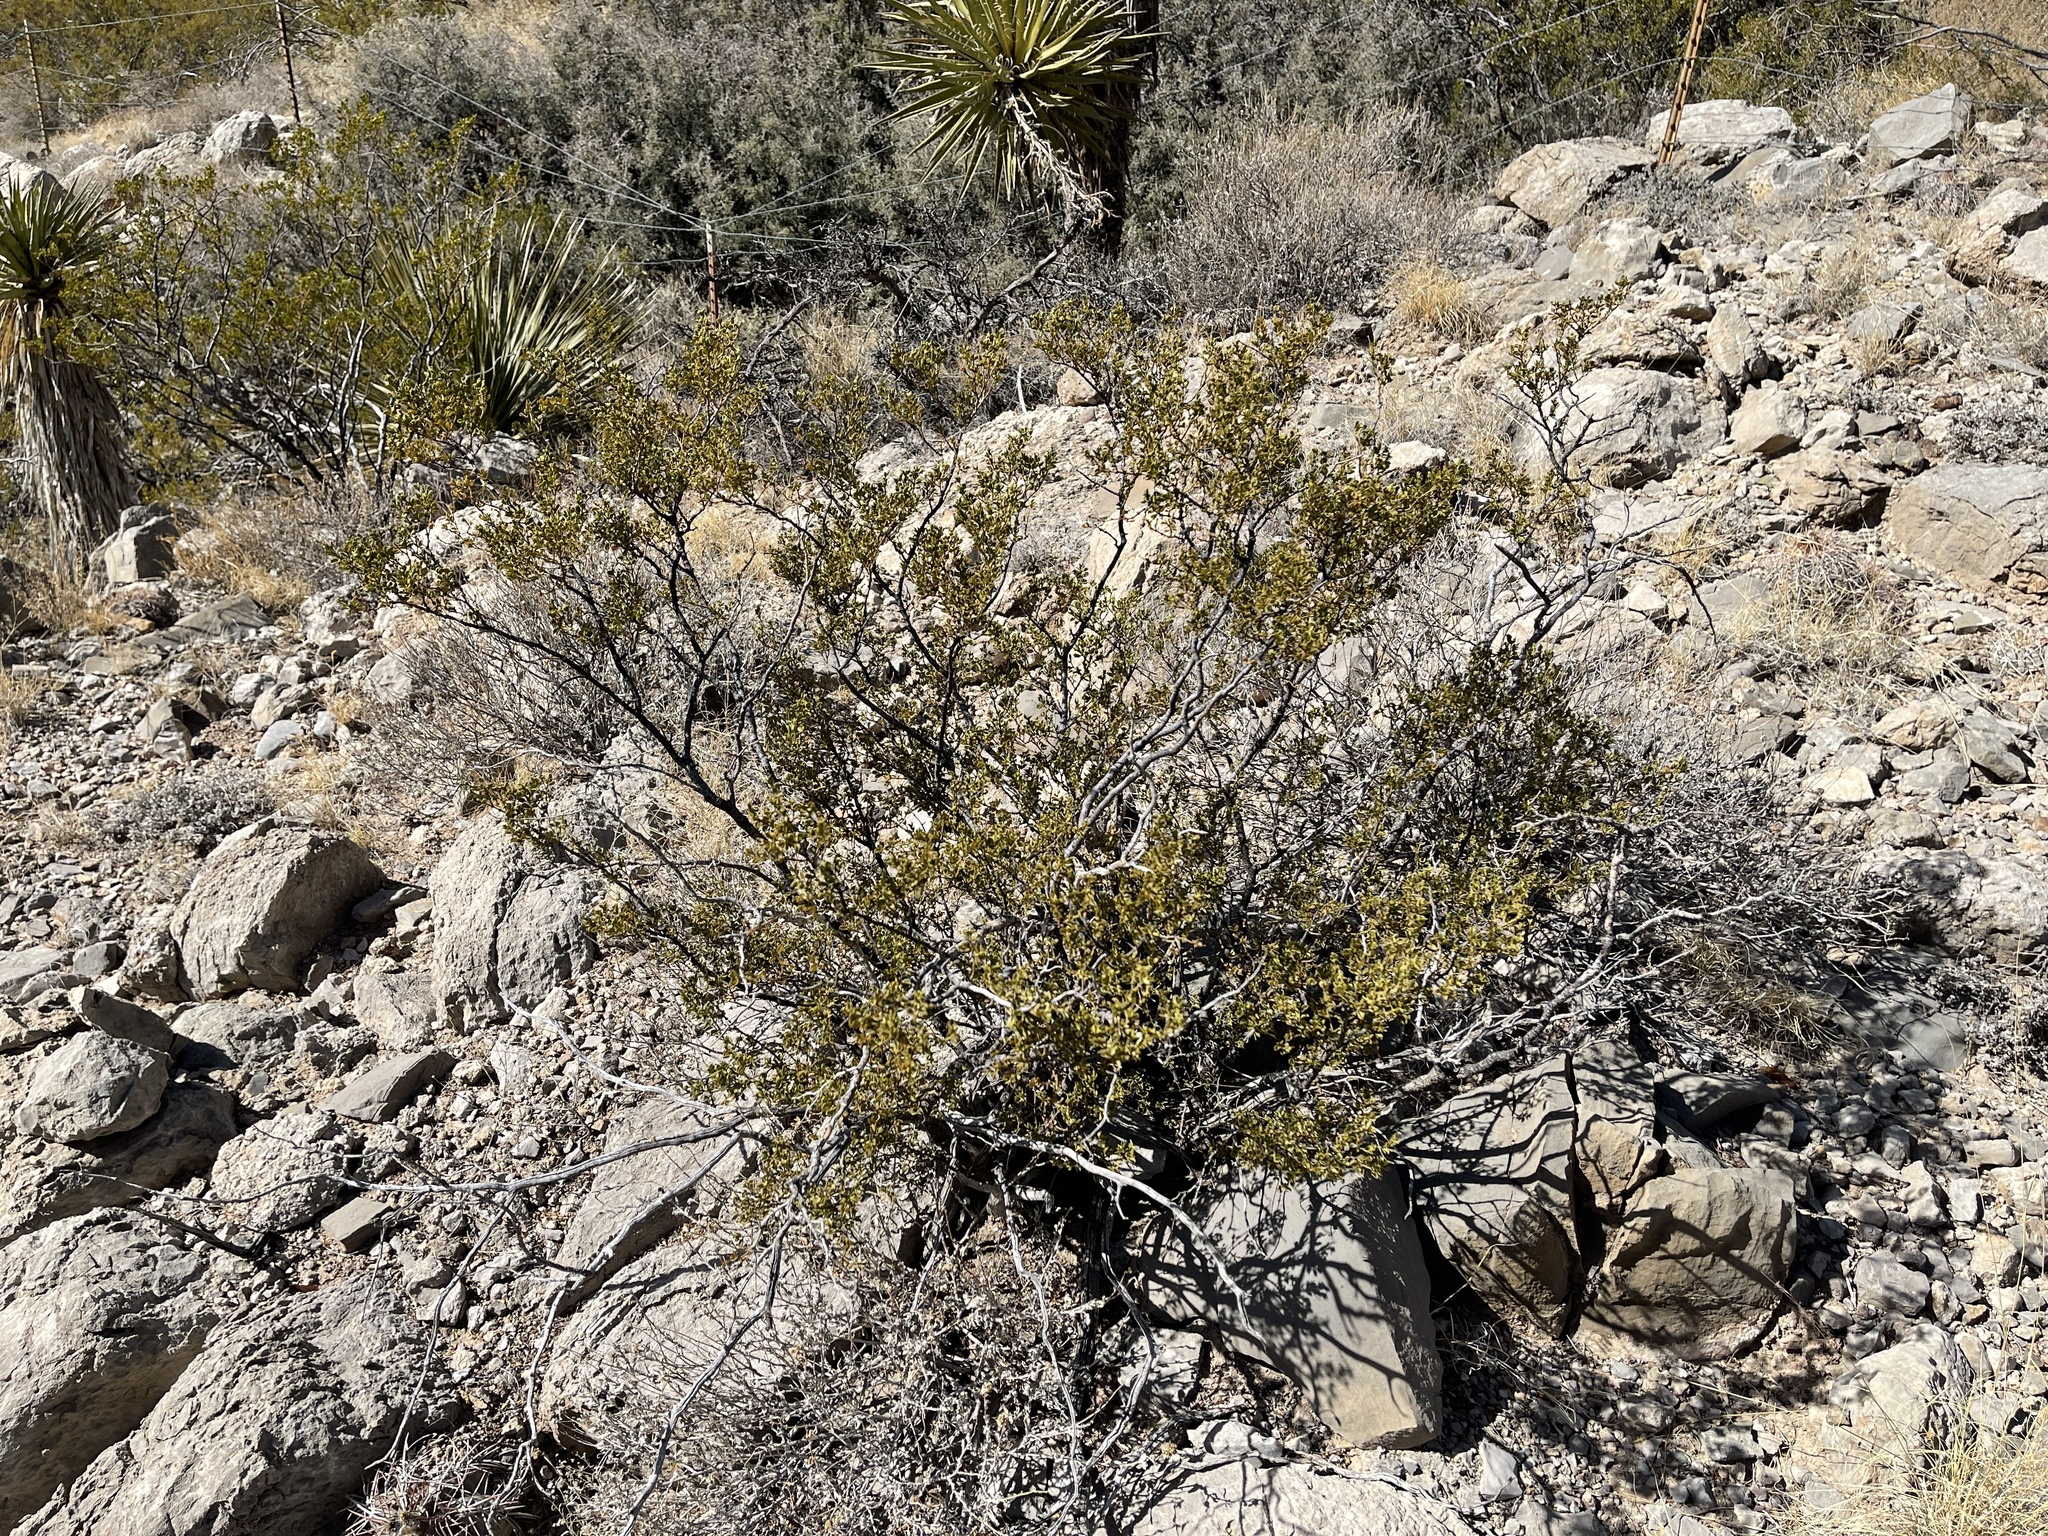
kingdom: Plantae
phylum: Tracheophyta
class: Magnoliopsida
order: Zygophyllales
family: Zygophyllaceae
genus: Larrea
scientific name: Larrea tridentata
